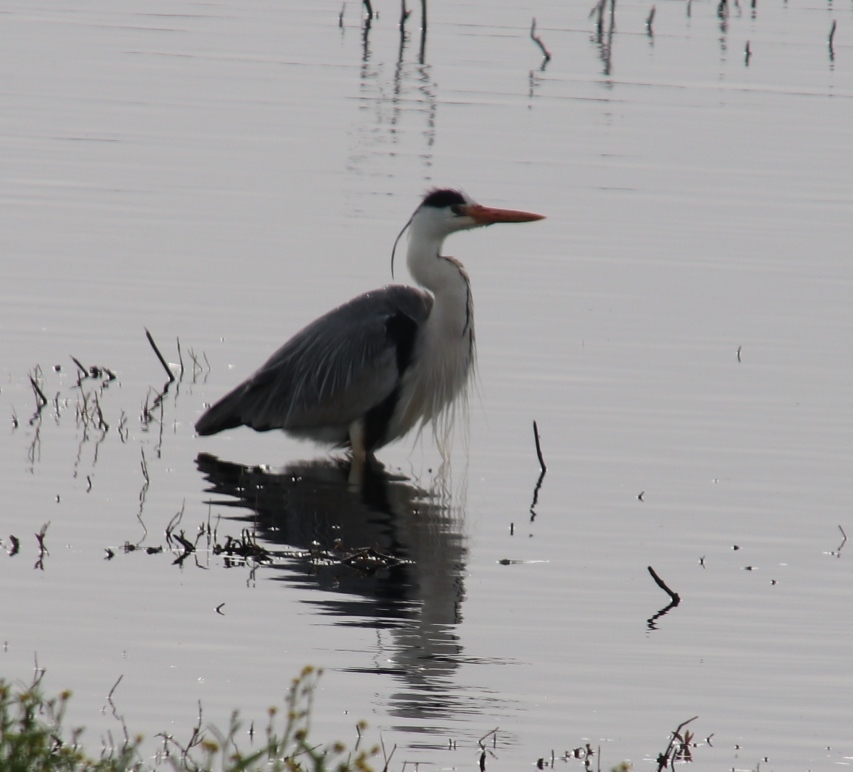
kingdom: Animalia
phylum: Chordata
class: Aves
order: Pelecaniformes
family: Ardeidae
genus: Ardea
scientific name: Ardea cinerea
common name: Grey heron
